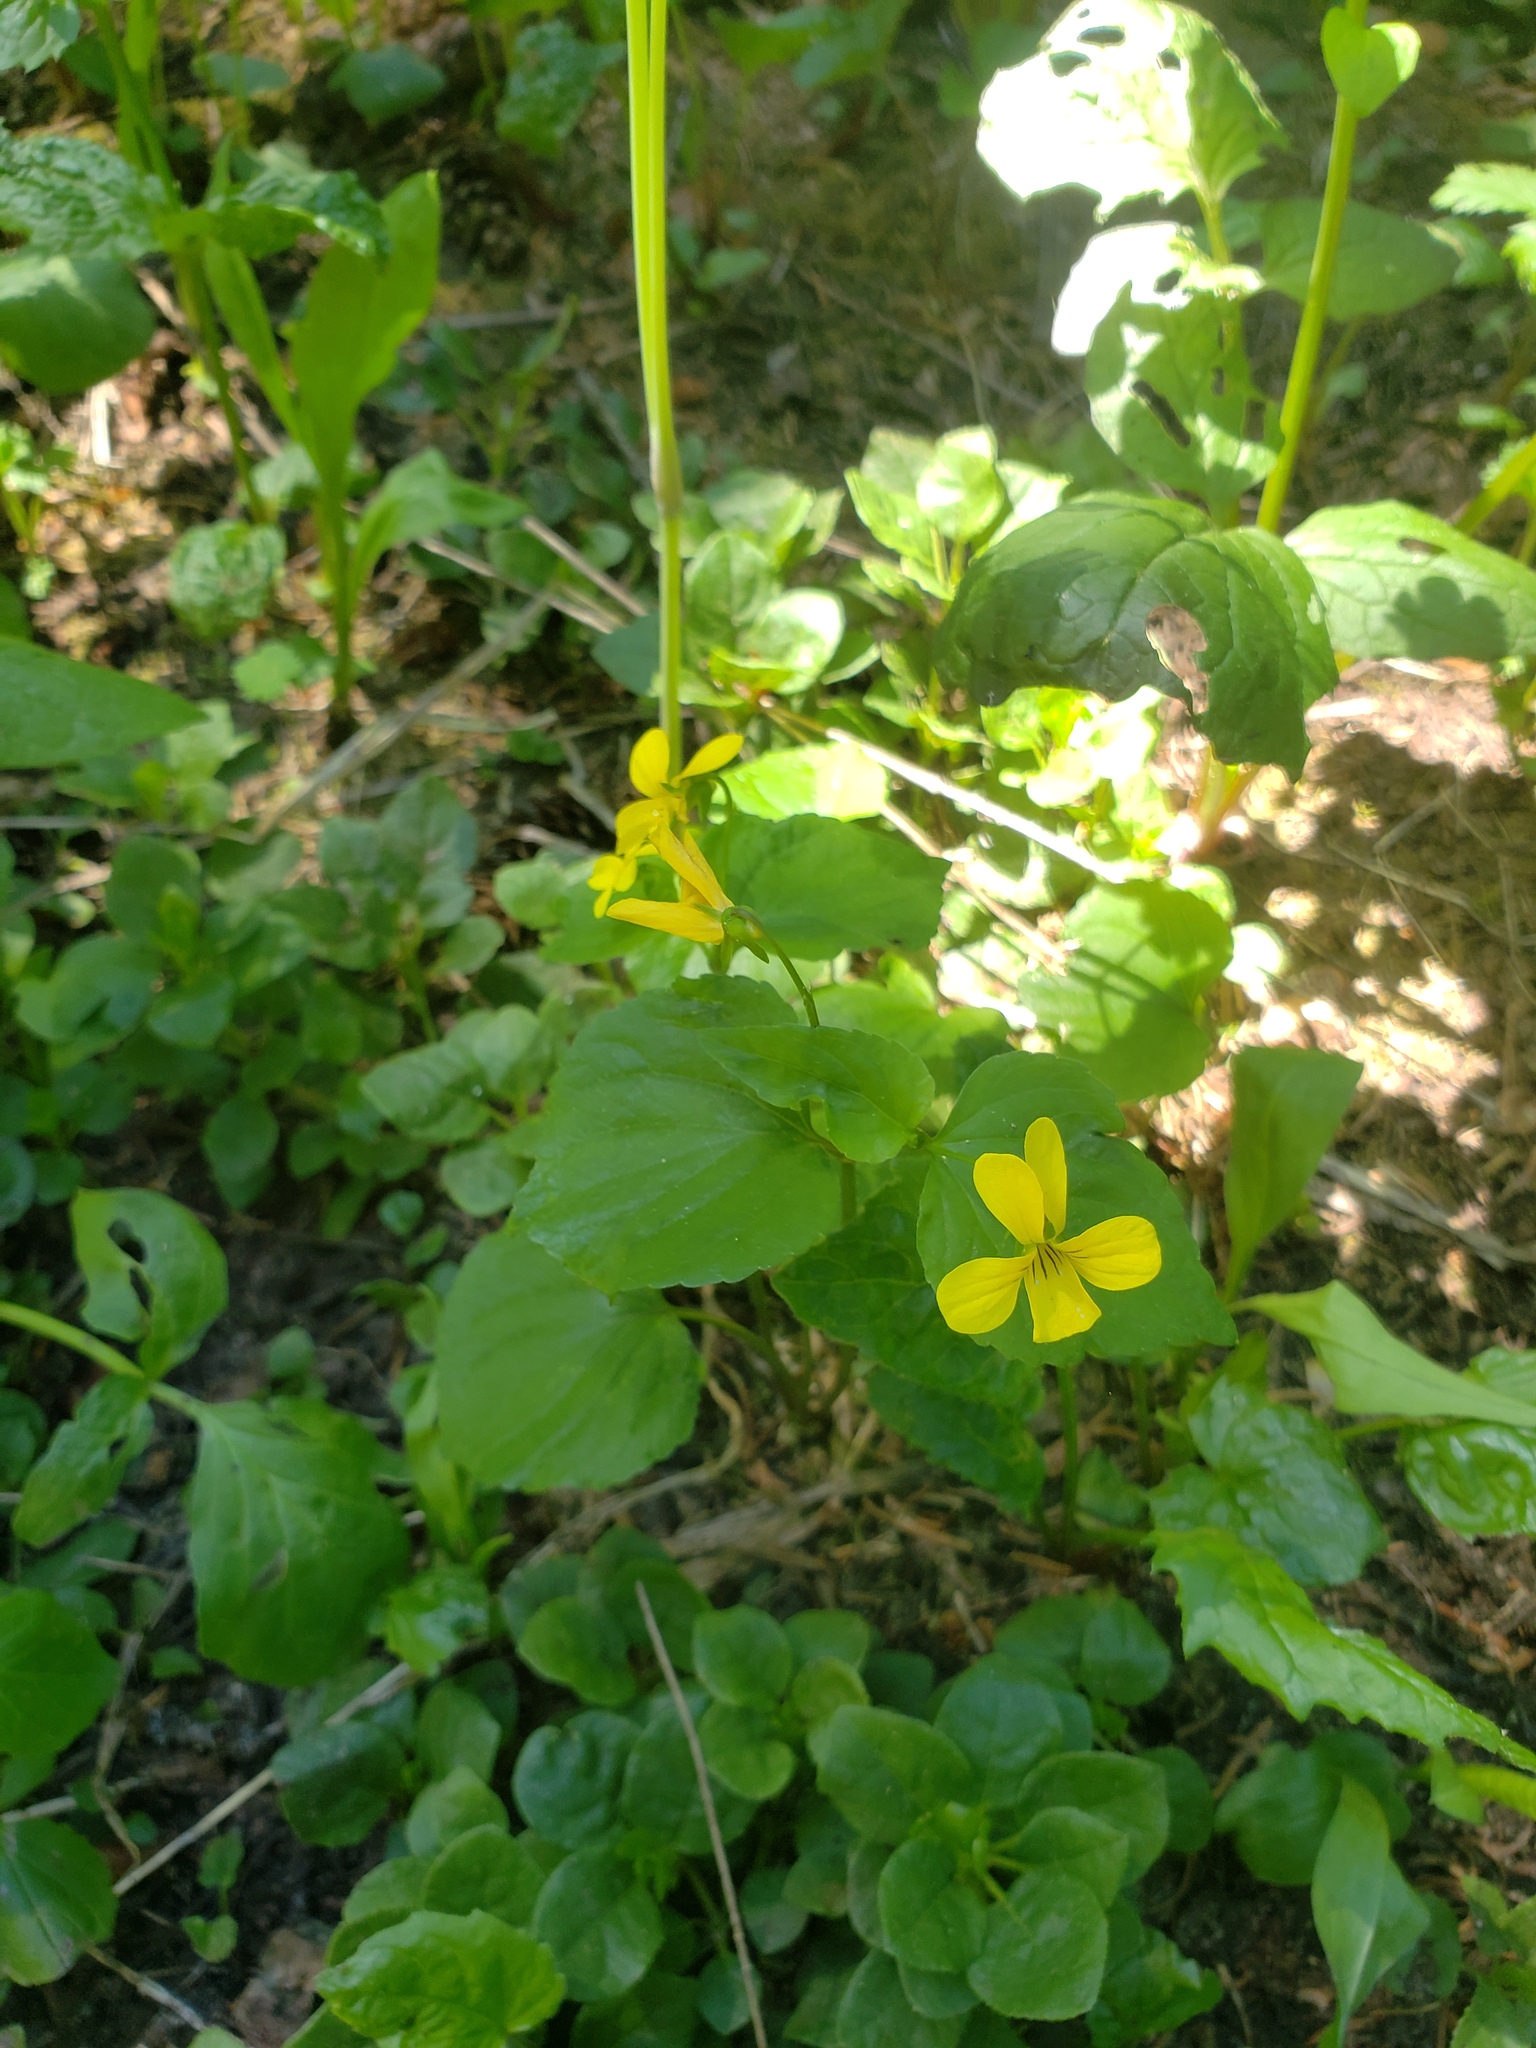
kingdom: Plantae
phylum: Tracheophyta
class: Magnoliopsida
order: Malpighiales
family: Violaceae
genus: Viola
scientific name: Viola glabella
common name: Stream violet
